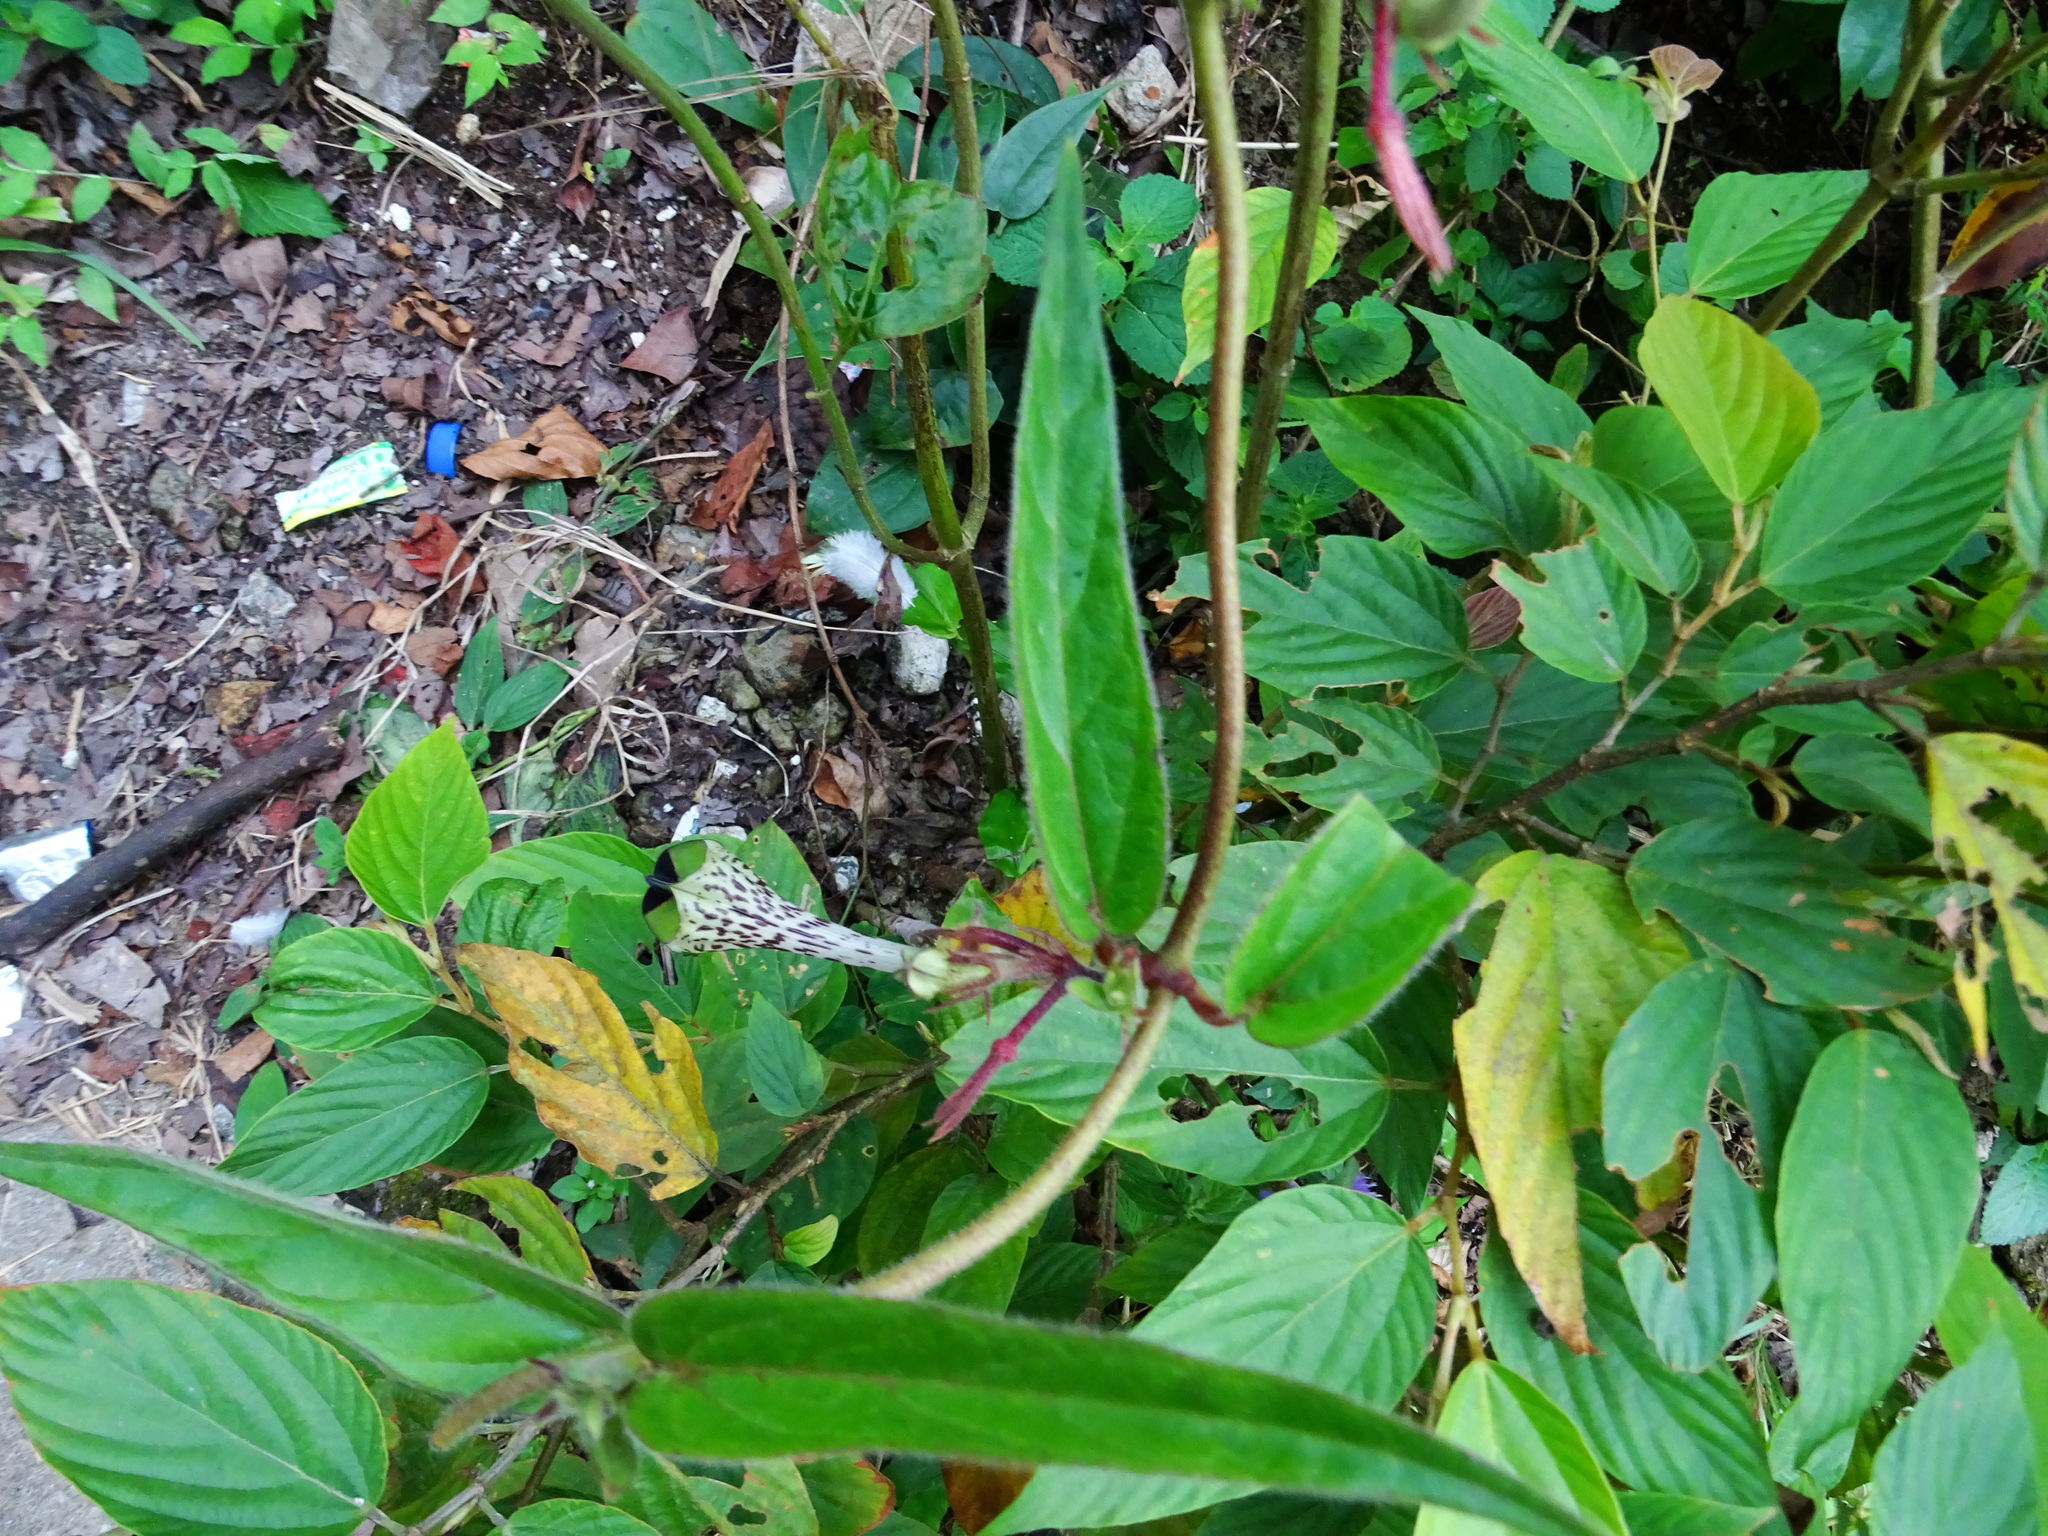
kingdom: Plantae
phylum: Tracheophyta
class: Magnoliopsida
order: Gentianales
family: Apocynaceae
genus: Ceropegia
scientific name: Ceropegia hirsuta
